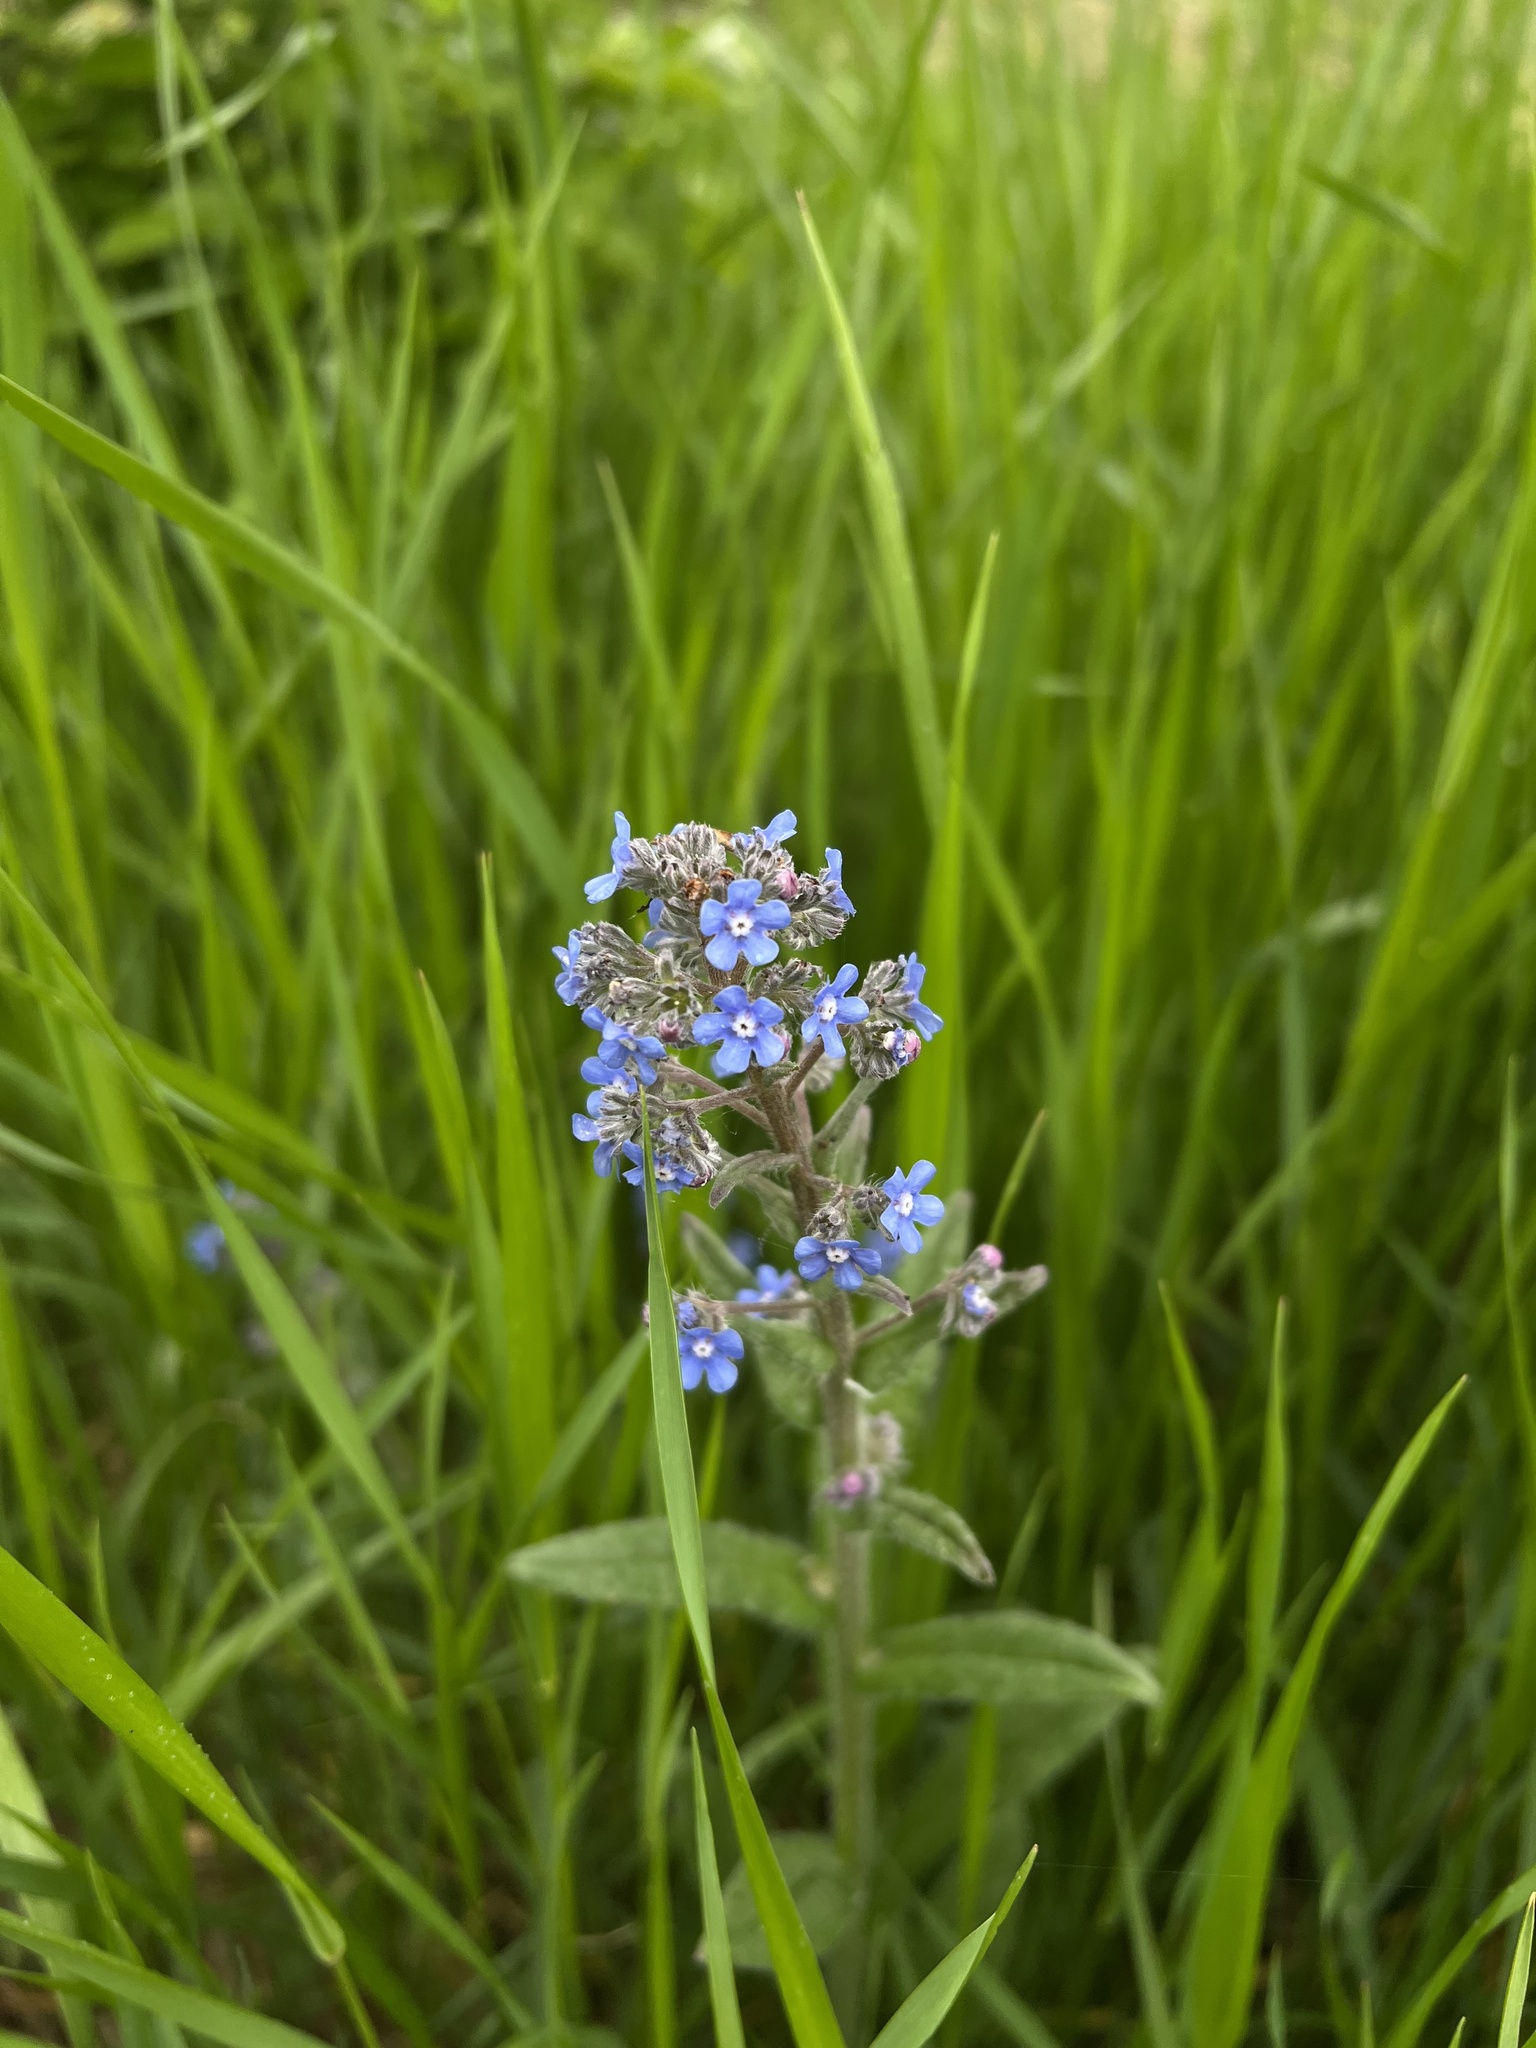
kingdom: Plantae
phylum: Tracheophyta
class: Magnoliopsida
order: Boraginales
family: Boraginaceae
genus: Anchusa
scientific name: Anchusa officinalis
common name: Alkanet
